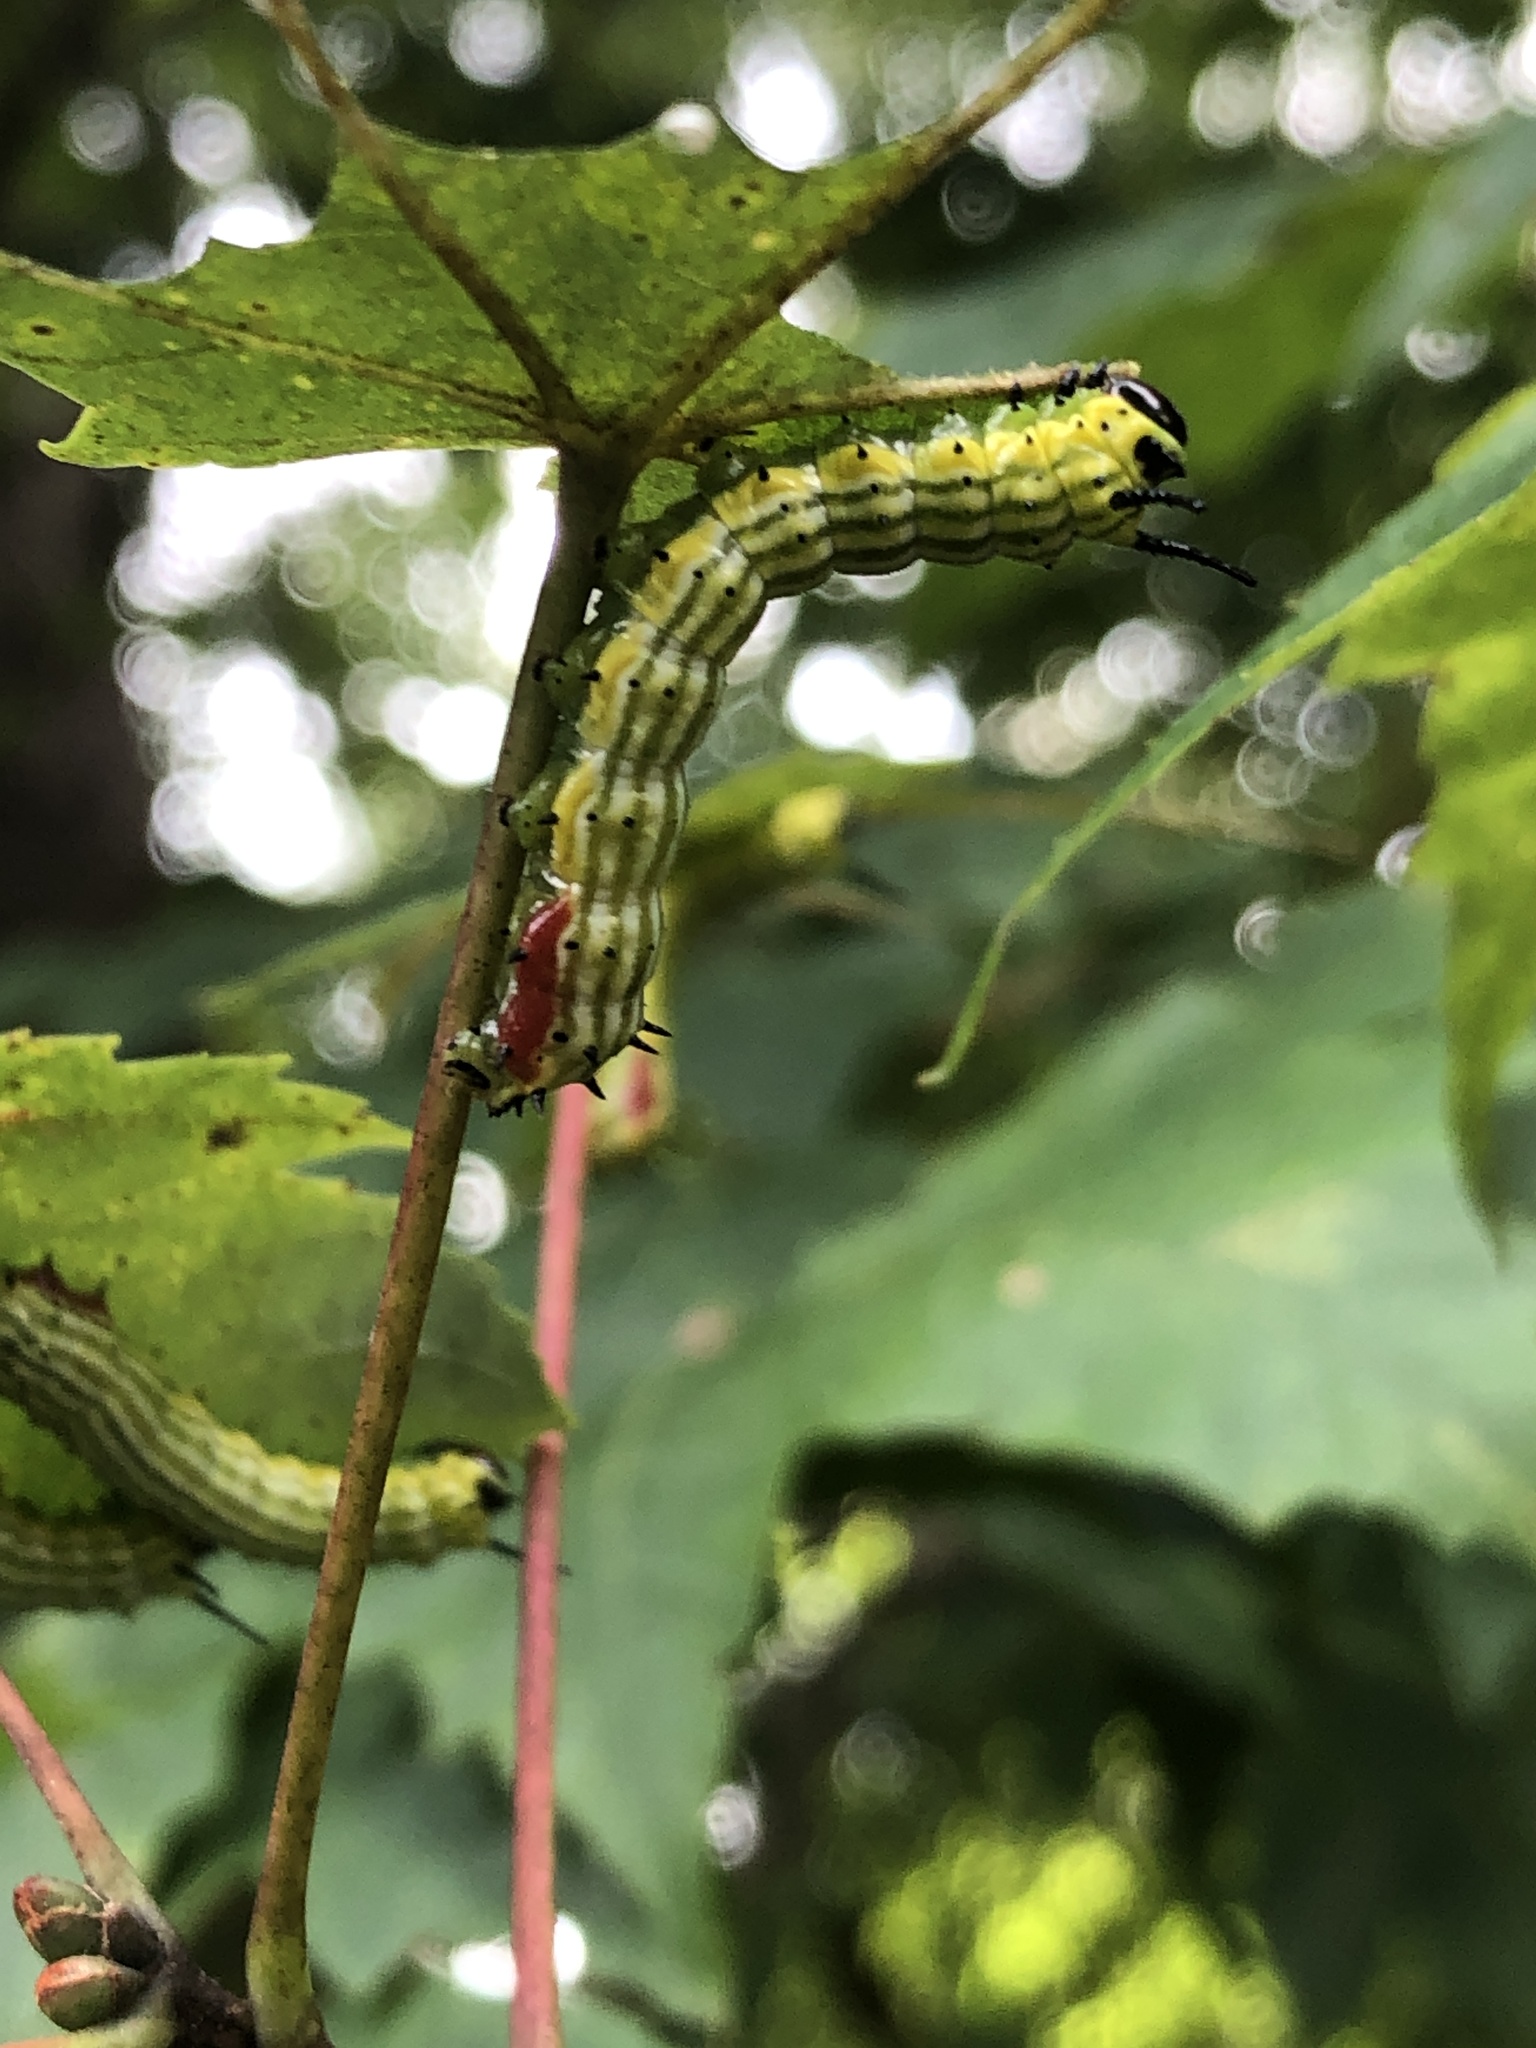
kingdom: Animalia
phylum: Arthropoda
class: Insecta
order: Lepidoptera
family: Saturniidae
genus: Dryocampa
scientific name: Dryocampa rubicunda
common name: Rosy maple moth
